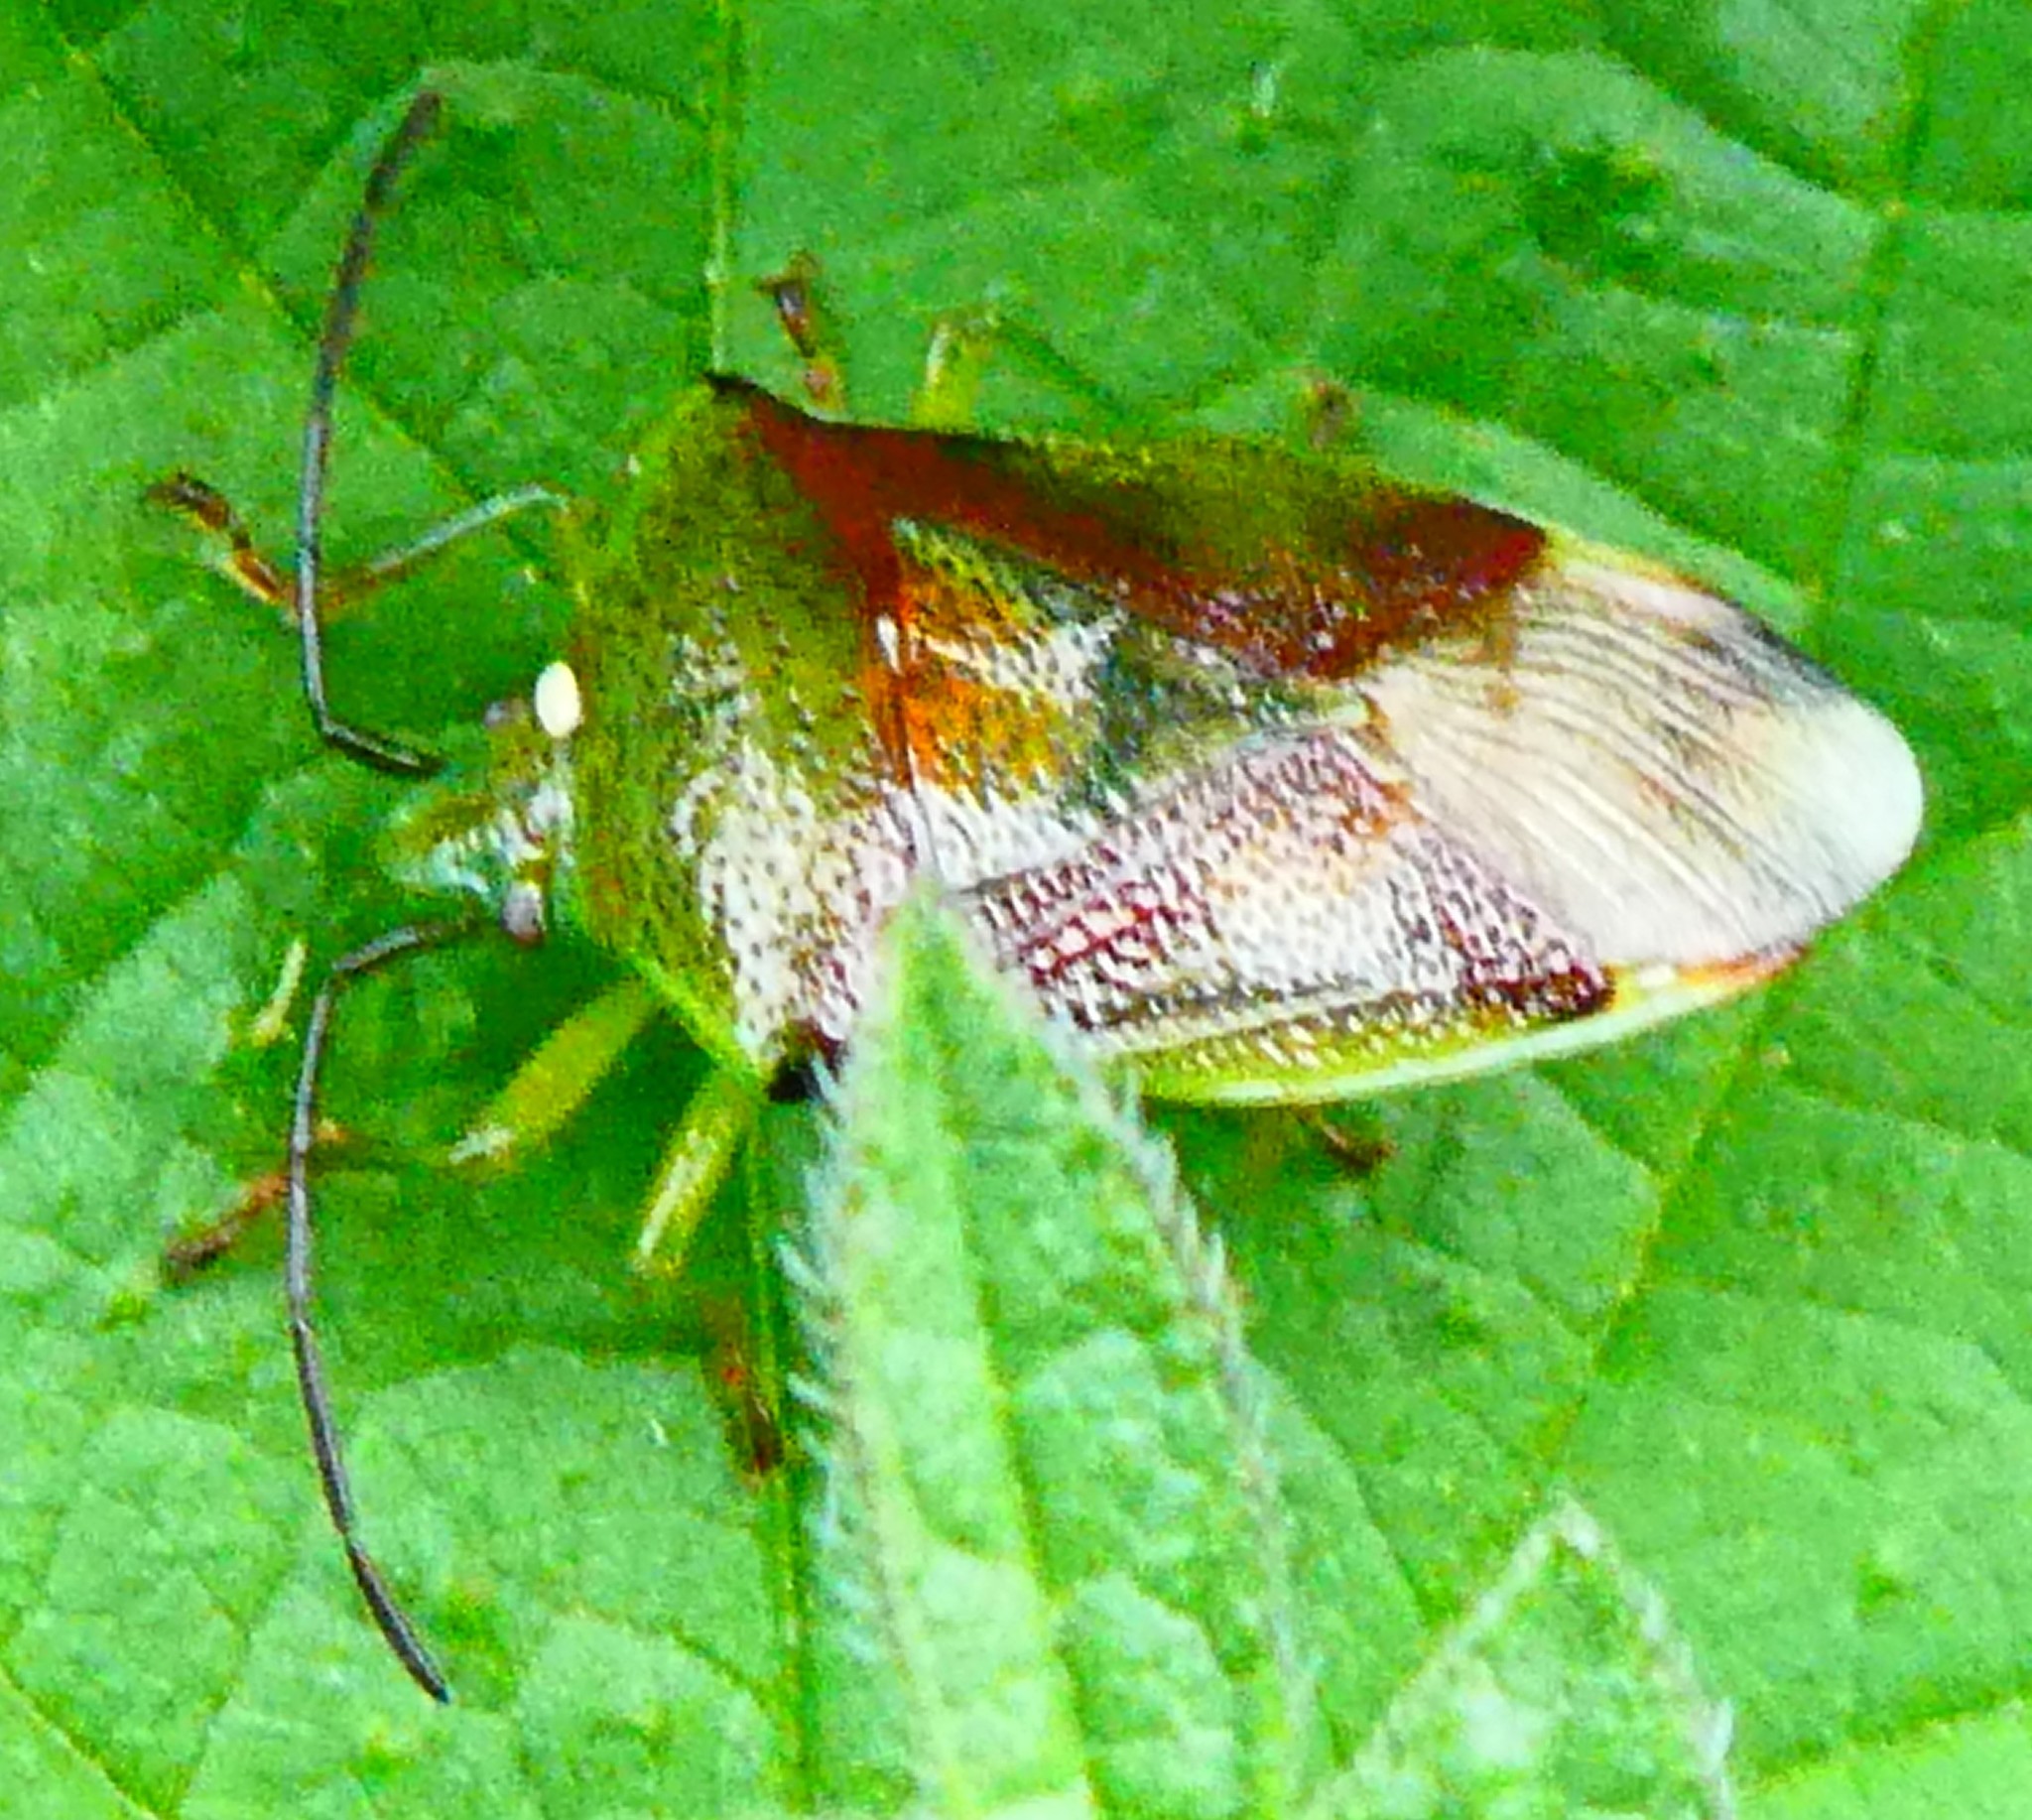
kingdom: Animalia
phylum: Arthropoda
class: Insecta
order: Hemiptera
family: Acanthosomatidae
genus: Elasmostethus
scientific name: Elasmostethus interstinctus
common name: Birch shieldbug
